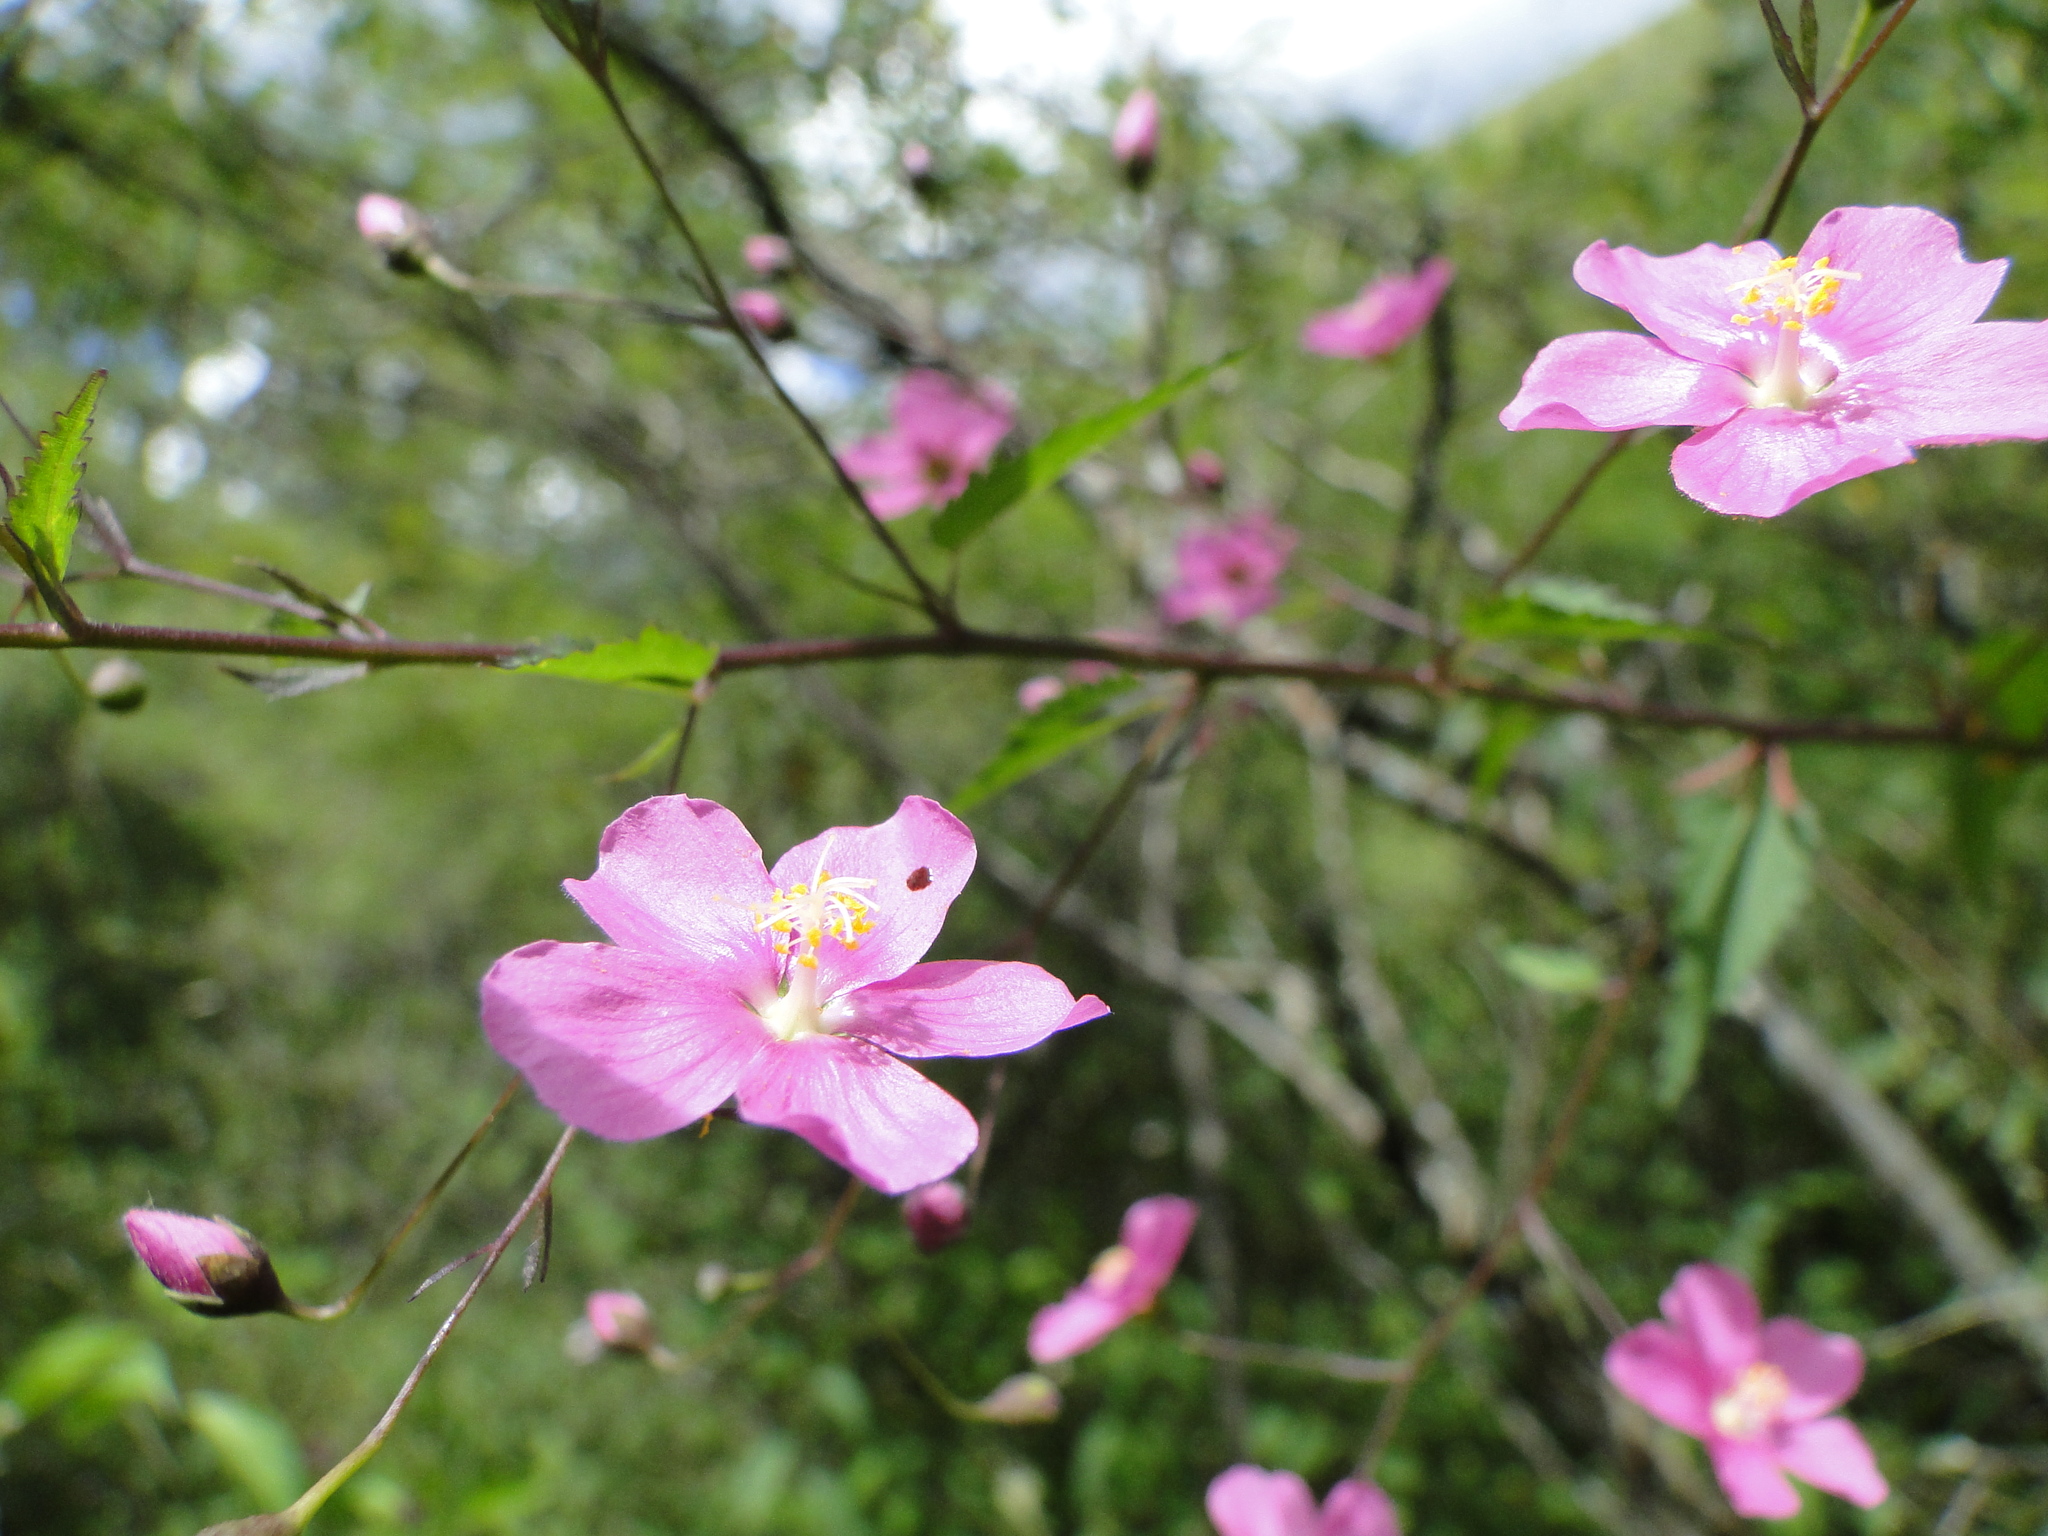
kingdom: Plantae
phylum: Tracheophyta
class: Magnoliopsida
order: Malvales
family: Malvaceae
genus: Sidastrum
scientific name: Sidastrum tehuacanum
